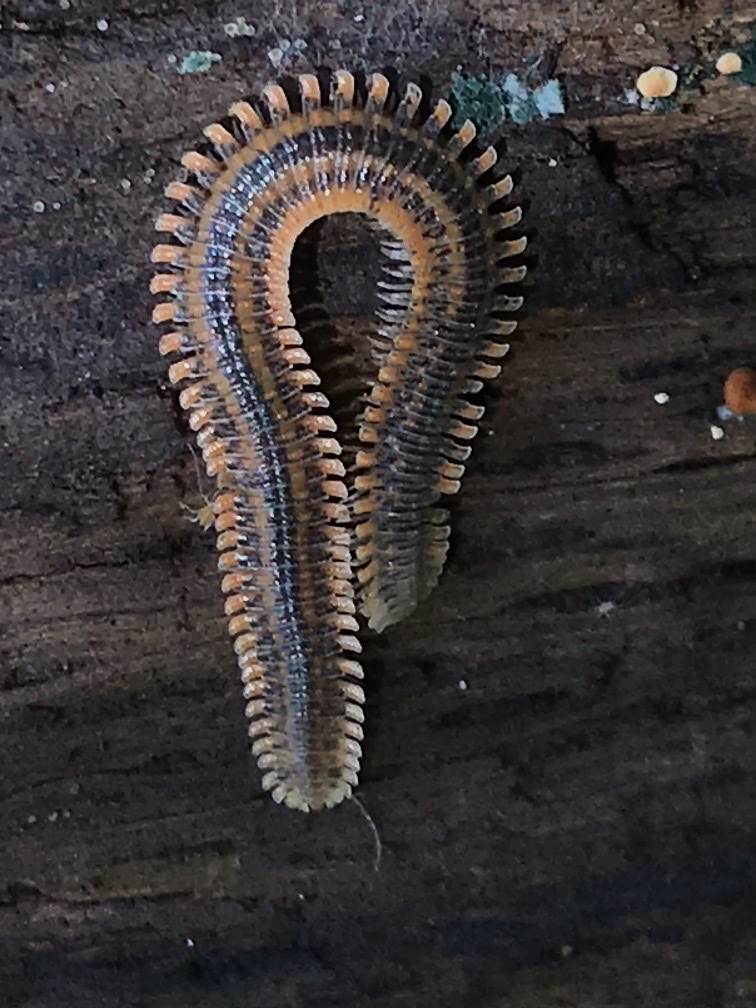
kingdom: Animalia
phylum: Arthropoda
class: Diplopoda
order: Platydesmida
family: Andrognathidae
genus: Brachycybe
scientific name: Brachycybe producta
